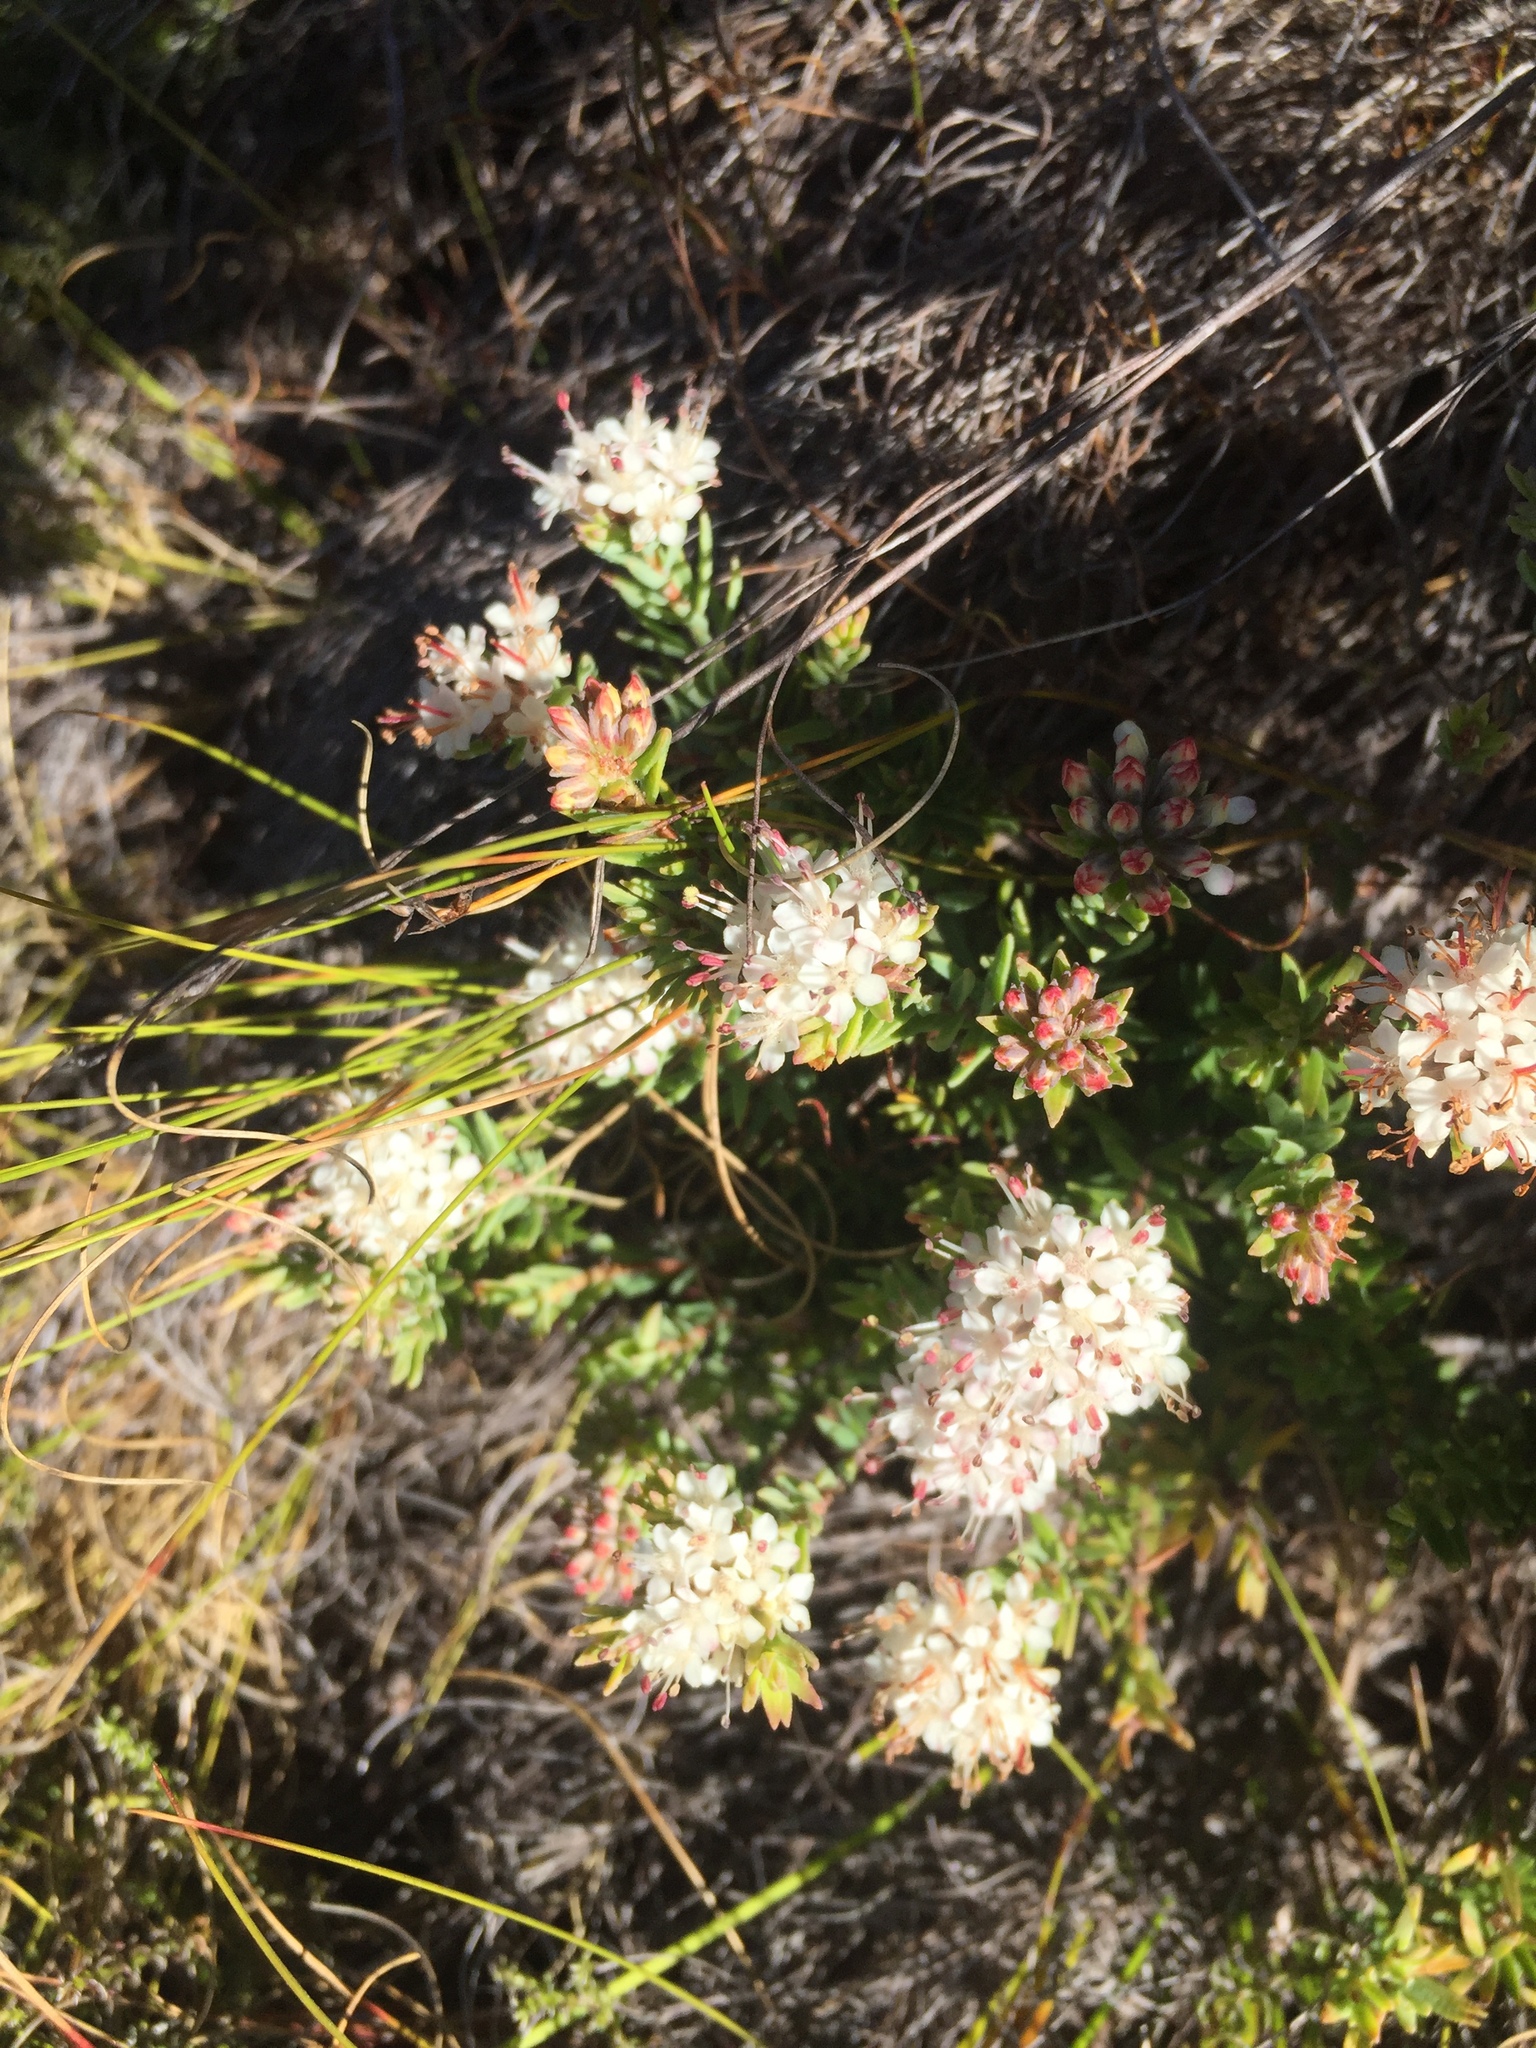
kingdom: Plantae
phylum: Tracheophyta
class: Magnoliopsida
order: Sapindales
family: Rutaceae
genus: Macrostylis
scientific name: Macrostylis villosa
